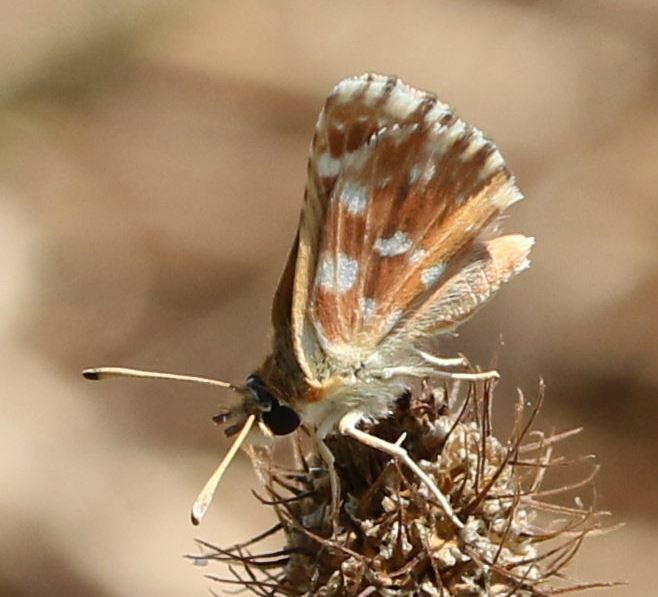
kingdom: Animalia
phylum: Arthropoda
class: Insecta
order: Lepidoptera
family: Hesperiidae
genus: Spialia
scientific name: Spialia sertorius
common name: Red underwing skipper
